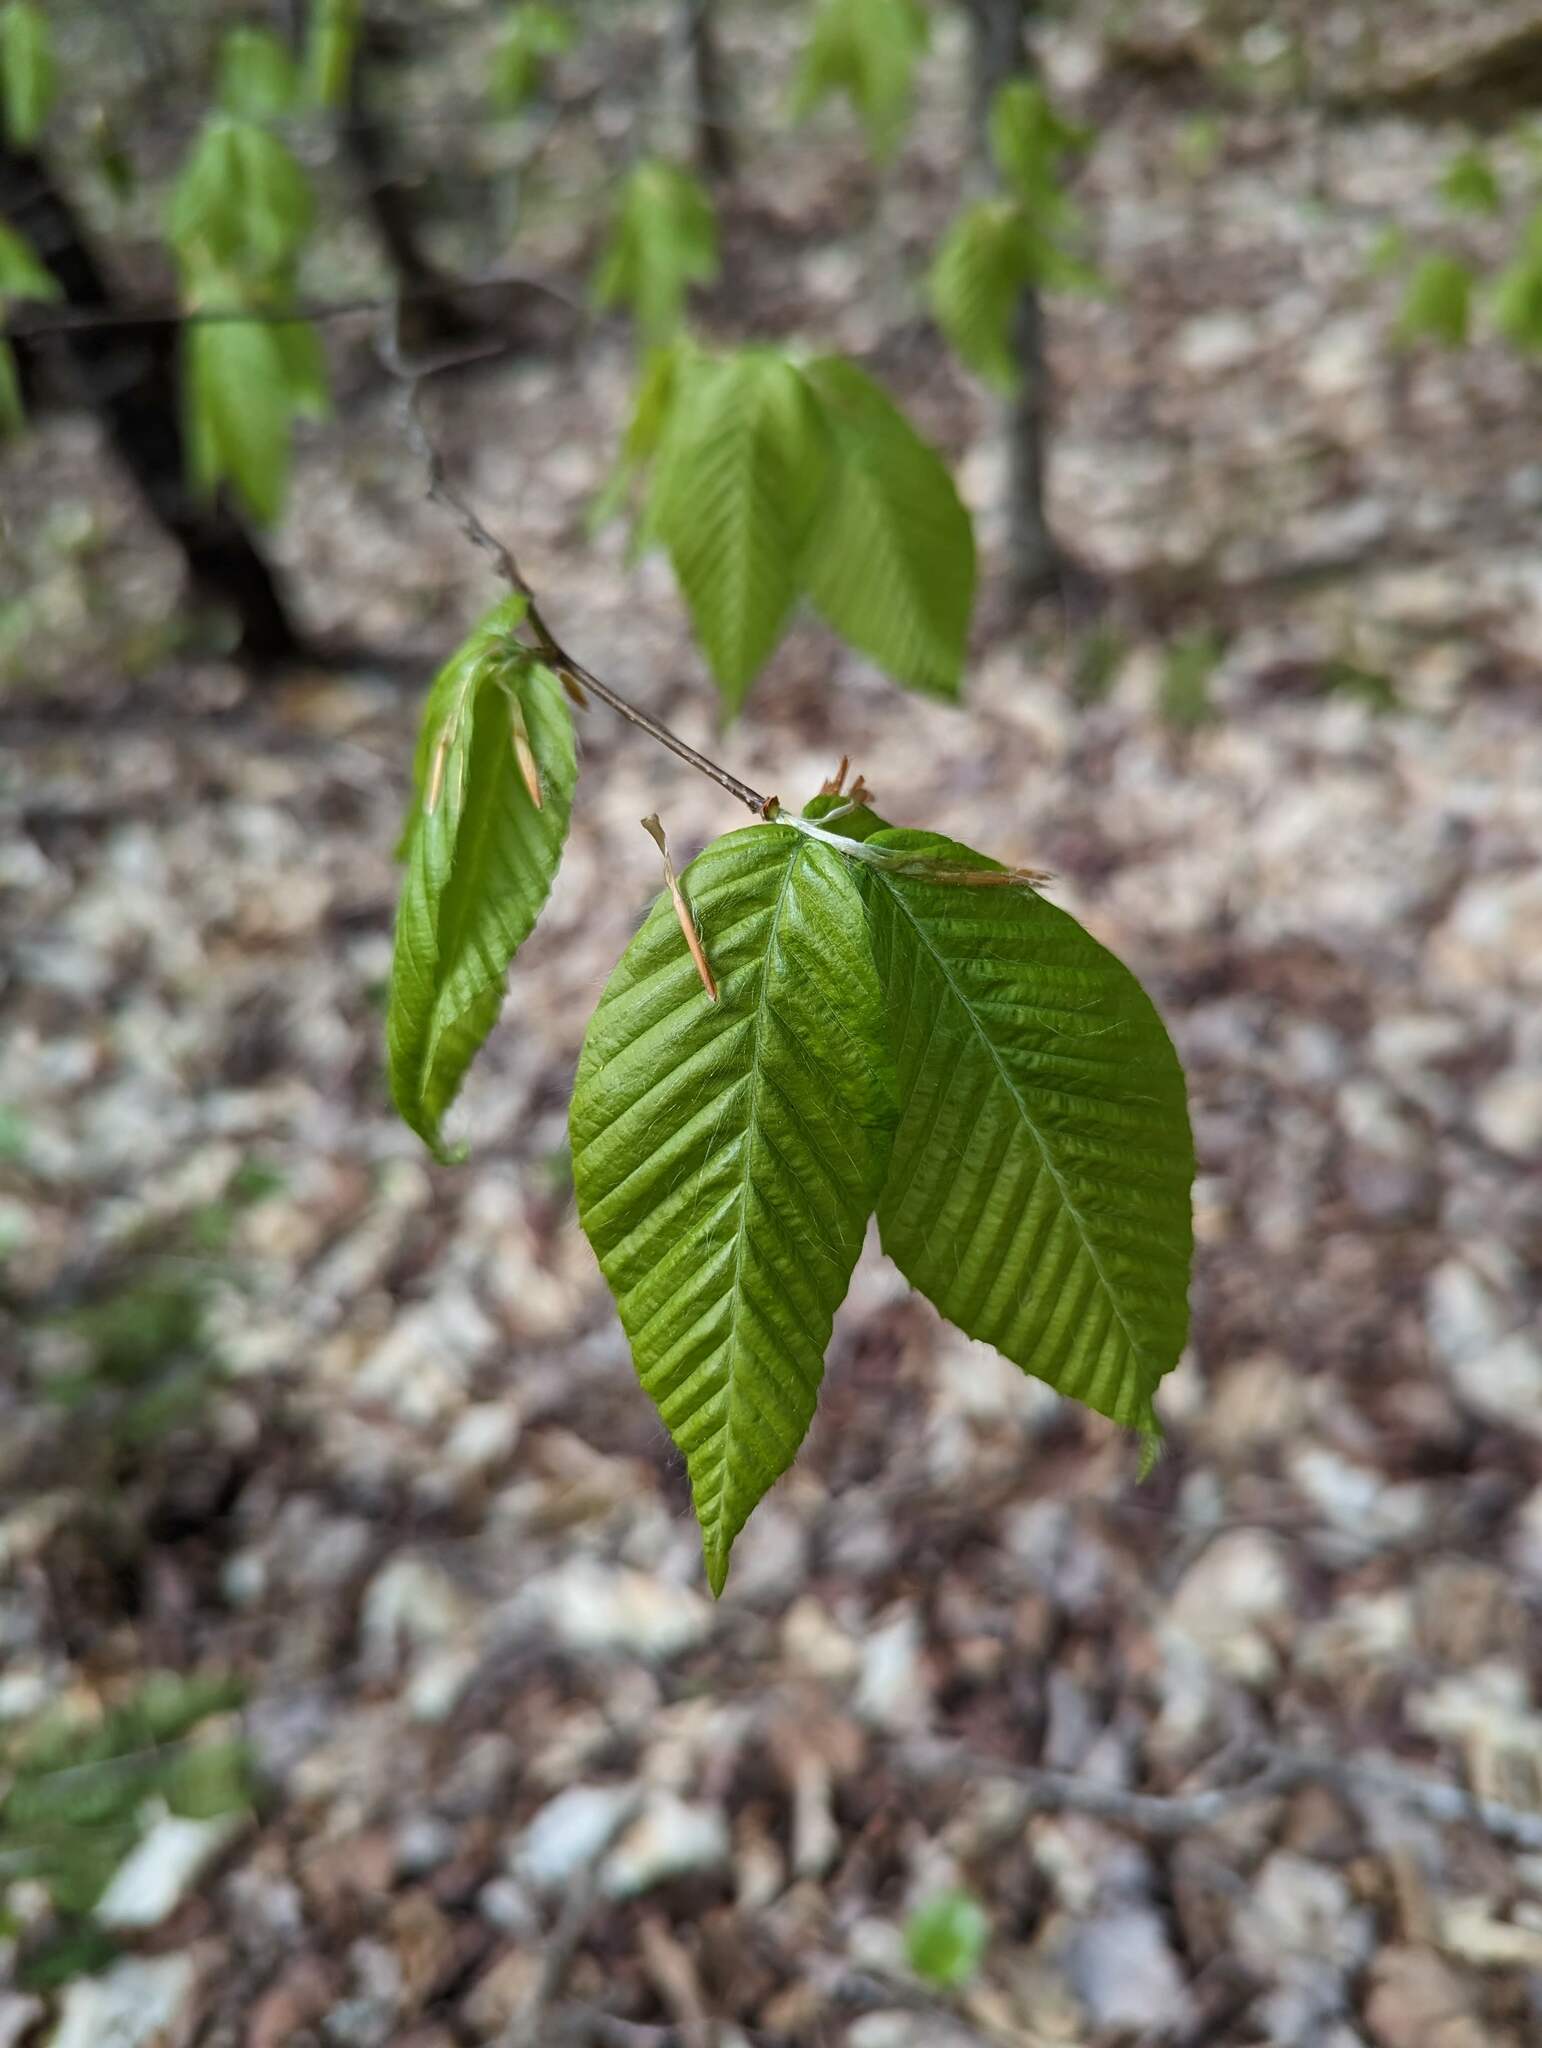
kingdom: Plantae
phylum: Tracheophyta
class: Magnoliopsida
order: Fagales
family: Fagaceae
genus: Fagus
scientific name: Fagus grandifolia
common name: American beech
